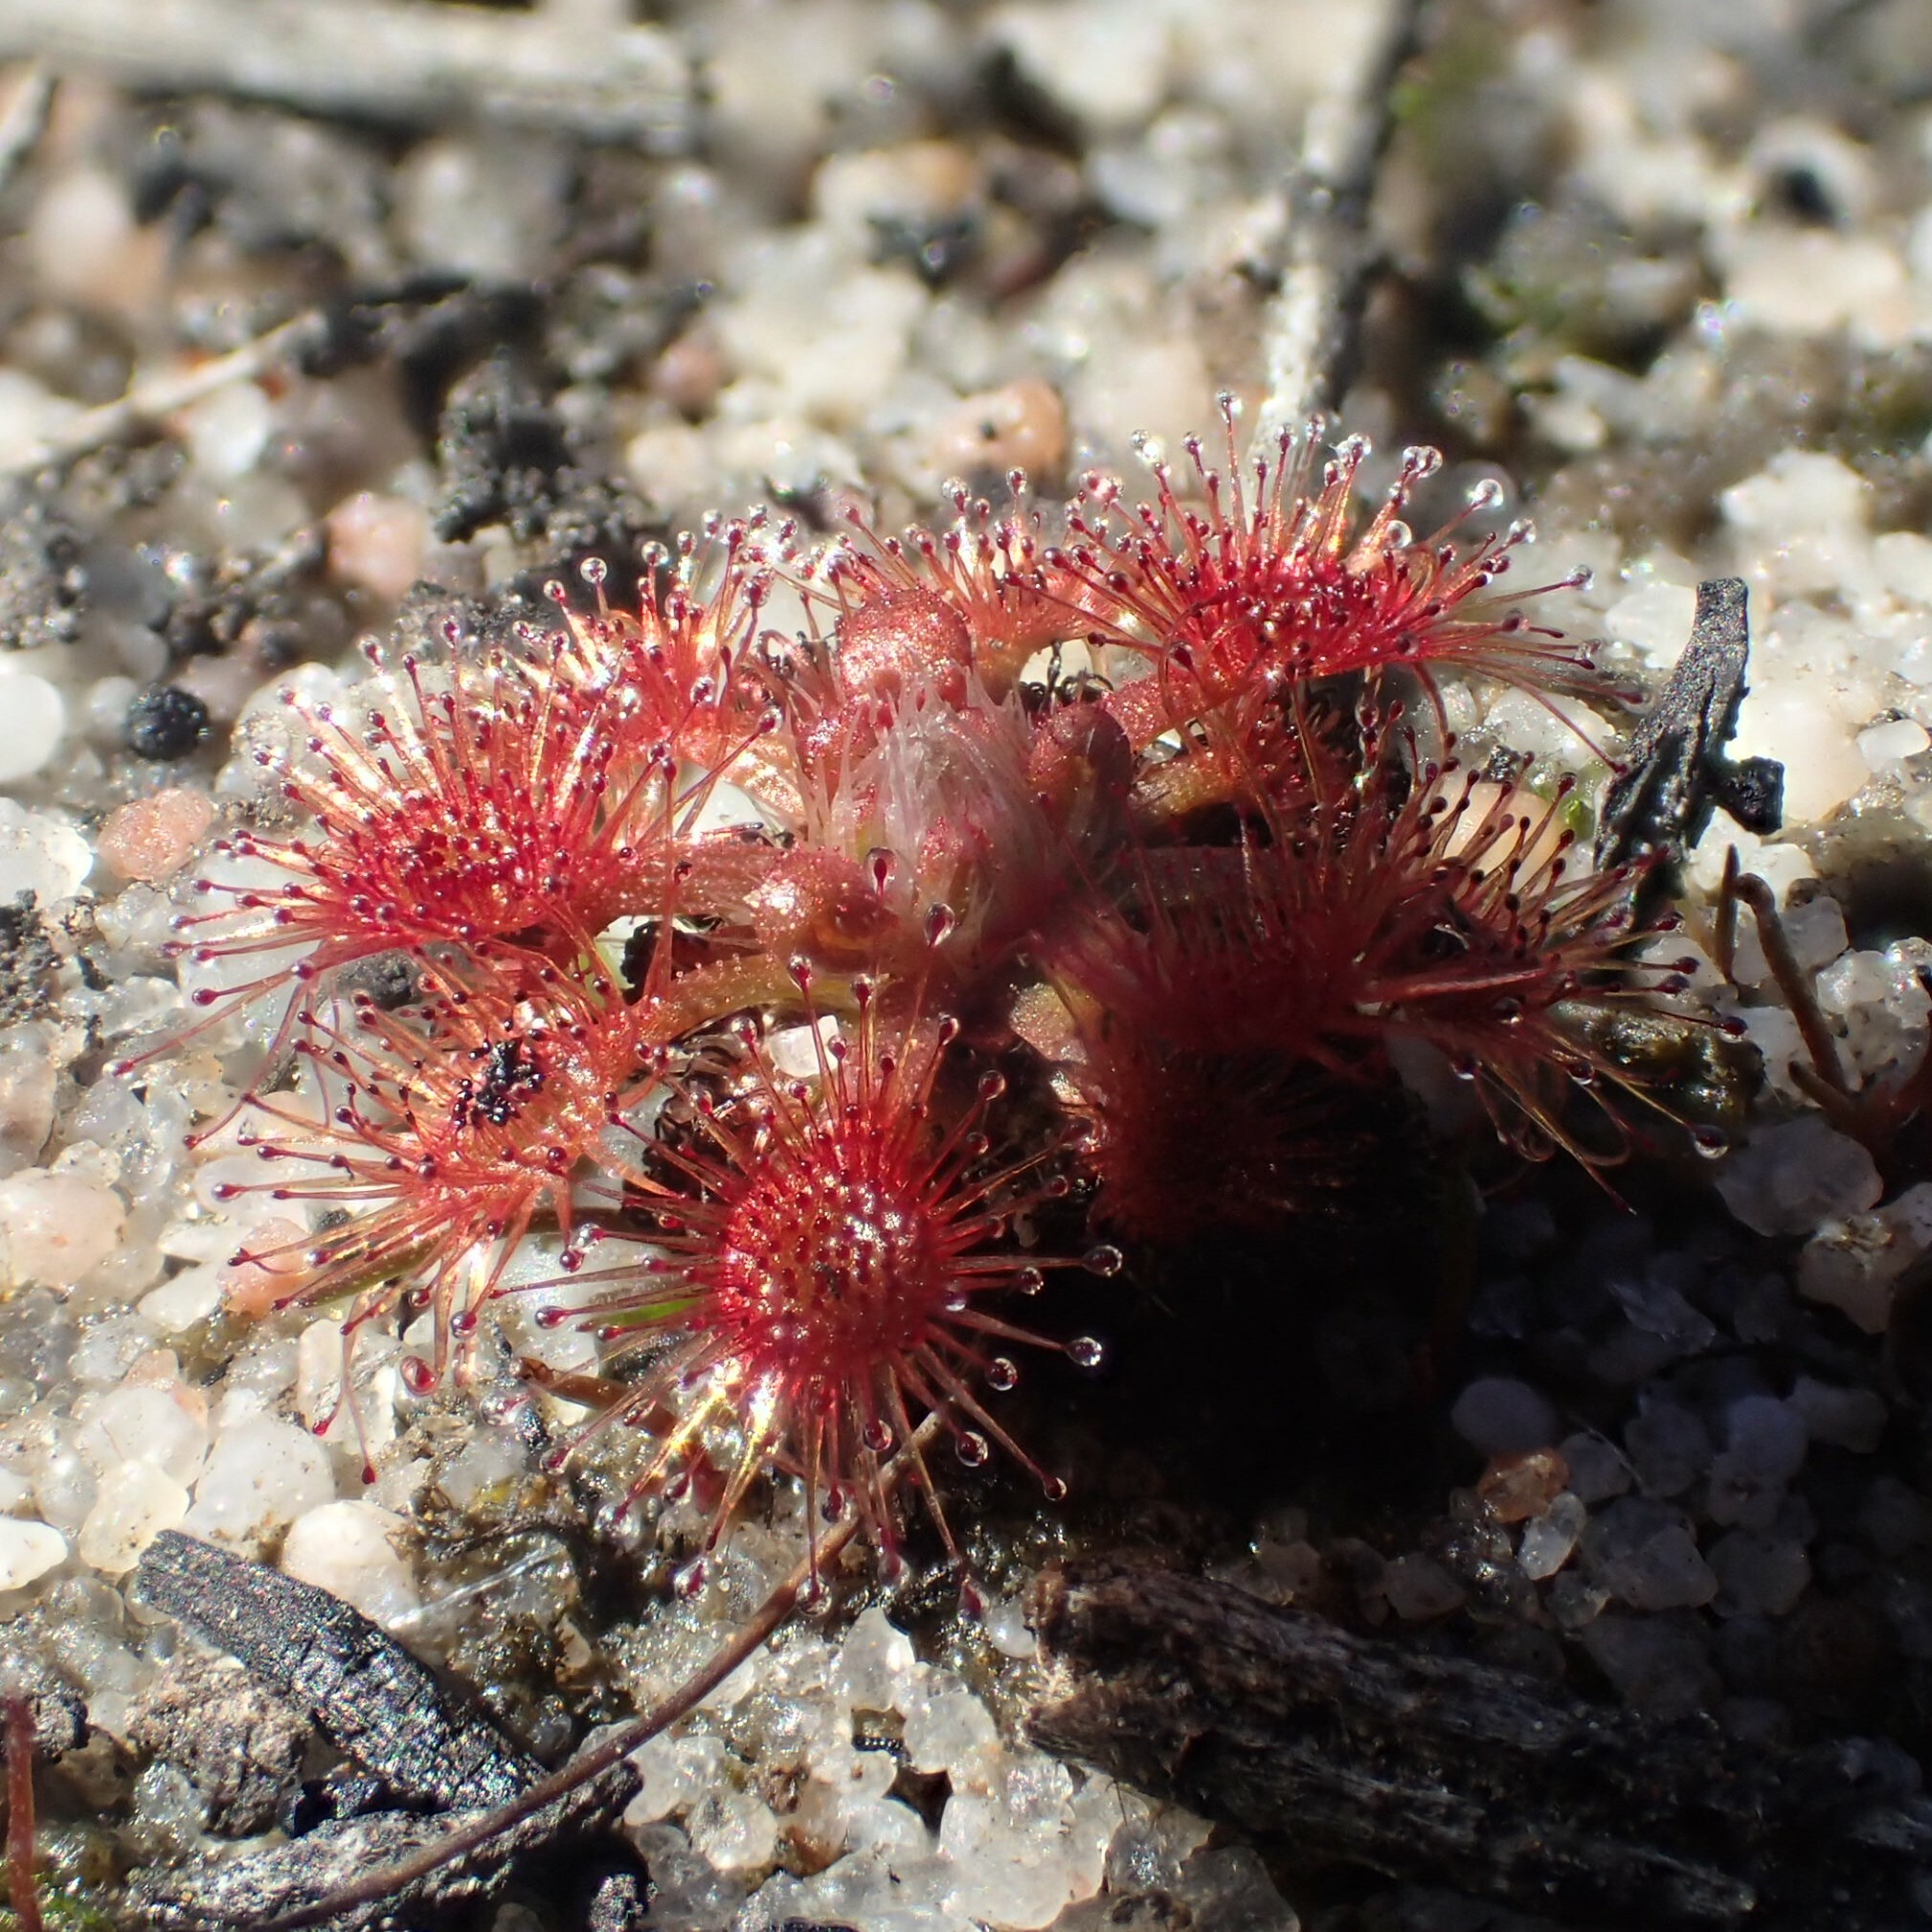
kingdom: Plantae
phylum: Tracheophyta
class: Magnoliopsida
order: Caryophyllales
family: Droseraceae
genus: Drosera
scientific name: Drosera nitidula
